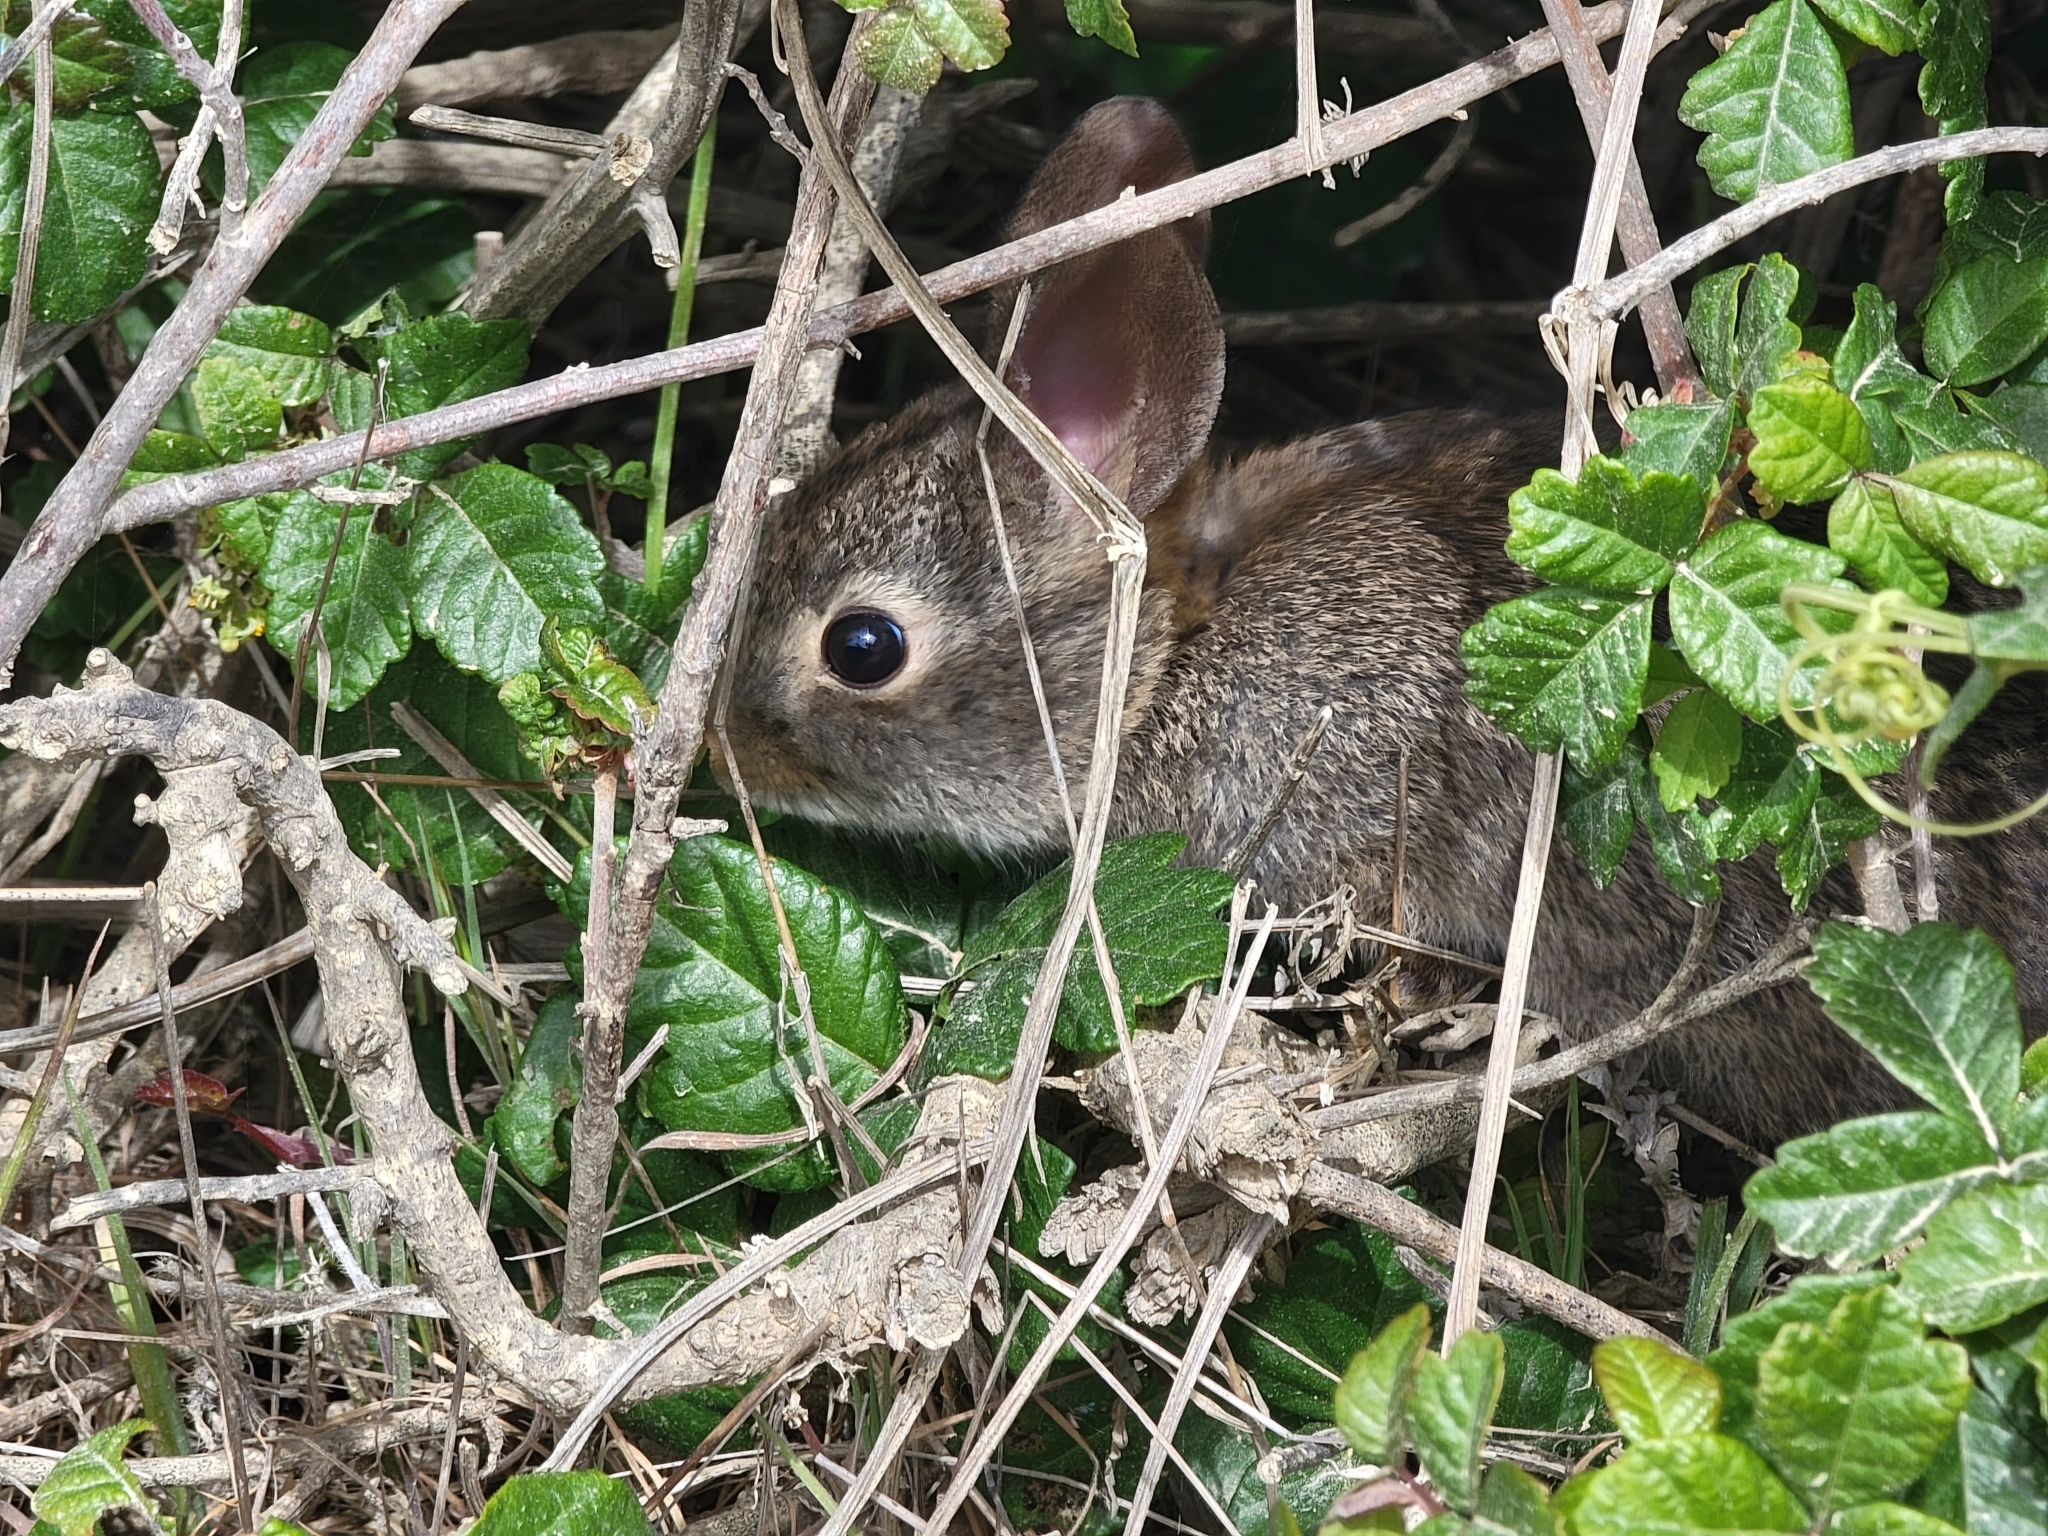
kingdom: Animalia
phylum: Chordata
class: Mammalia
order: Lagomorpha
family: Leporidae
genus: Sylvilagus
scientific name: Sylvilagus bachmani
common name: Brush rabbit
